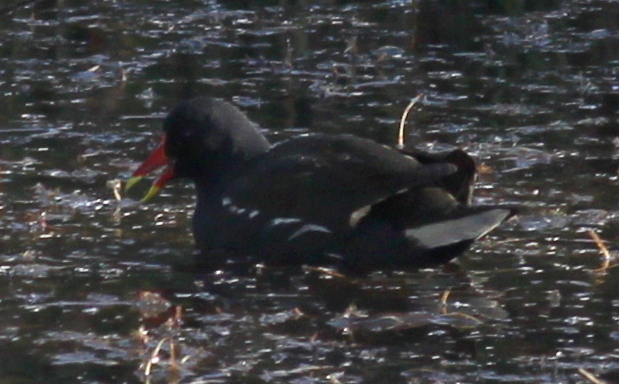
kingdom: Animalia
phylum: Chordata
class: Aves
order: Gruiformes
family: Rallidae
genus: Gallinula
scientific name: Gallinula chloropus
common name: Common moorhen
